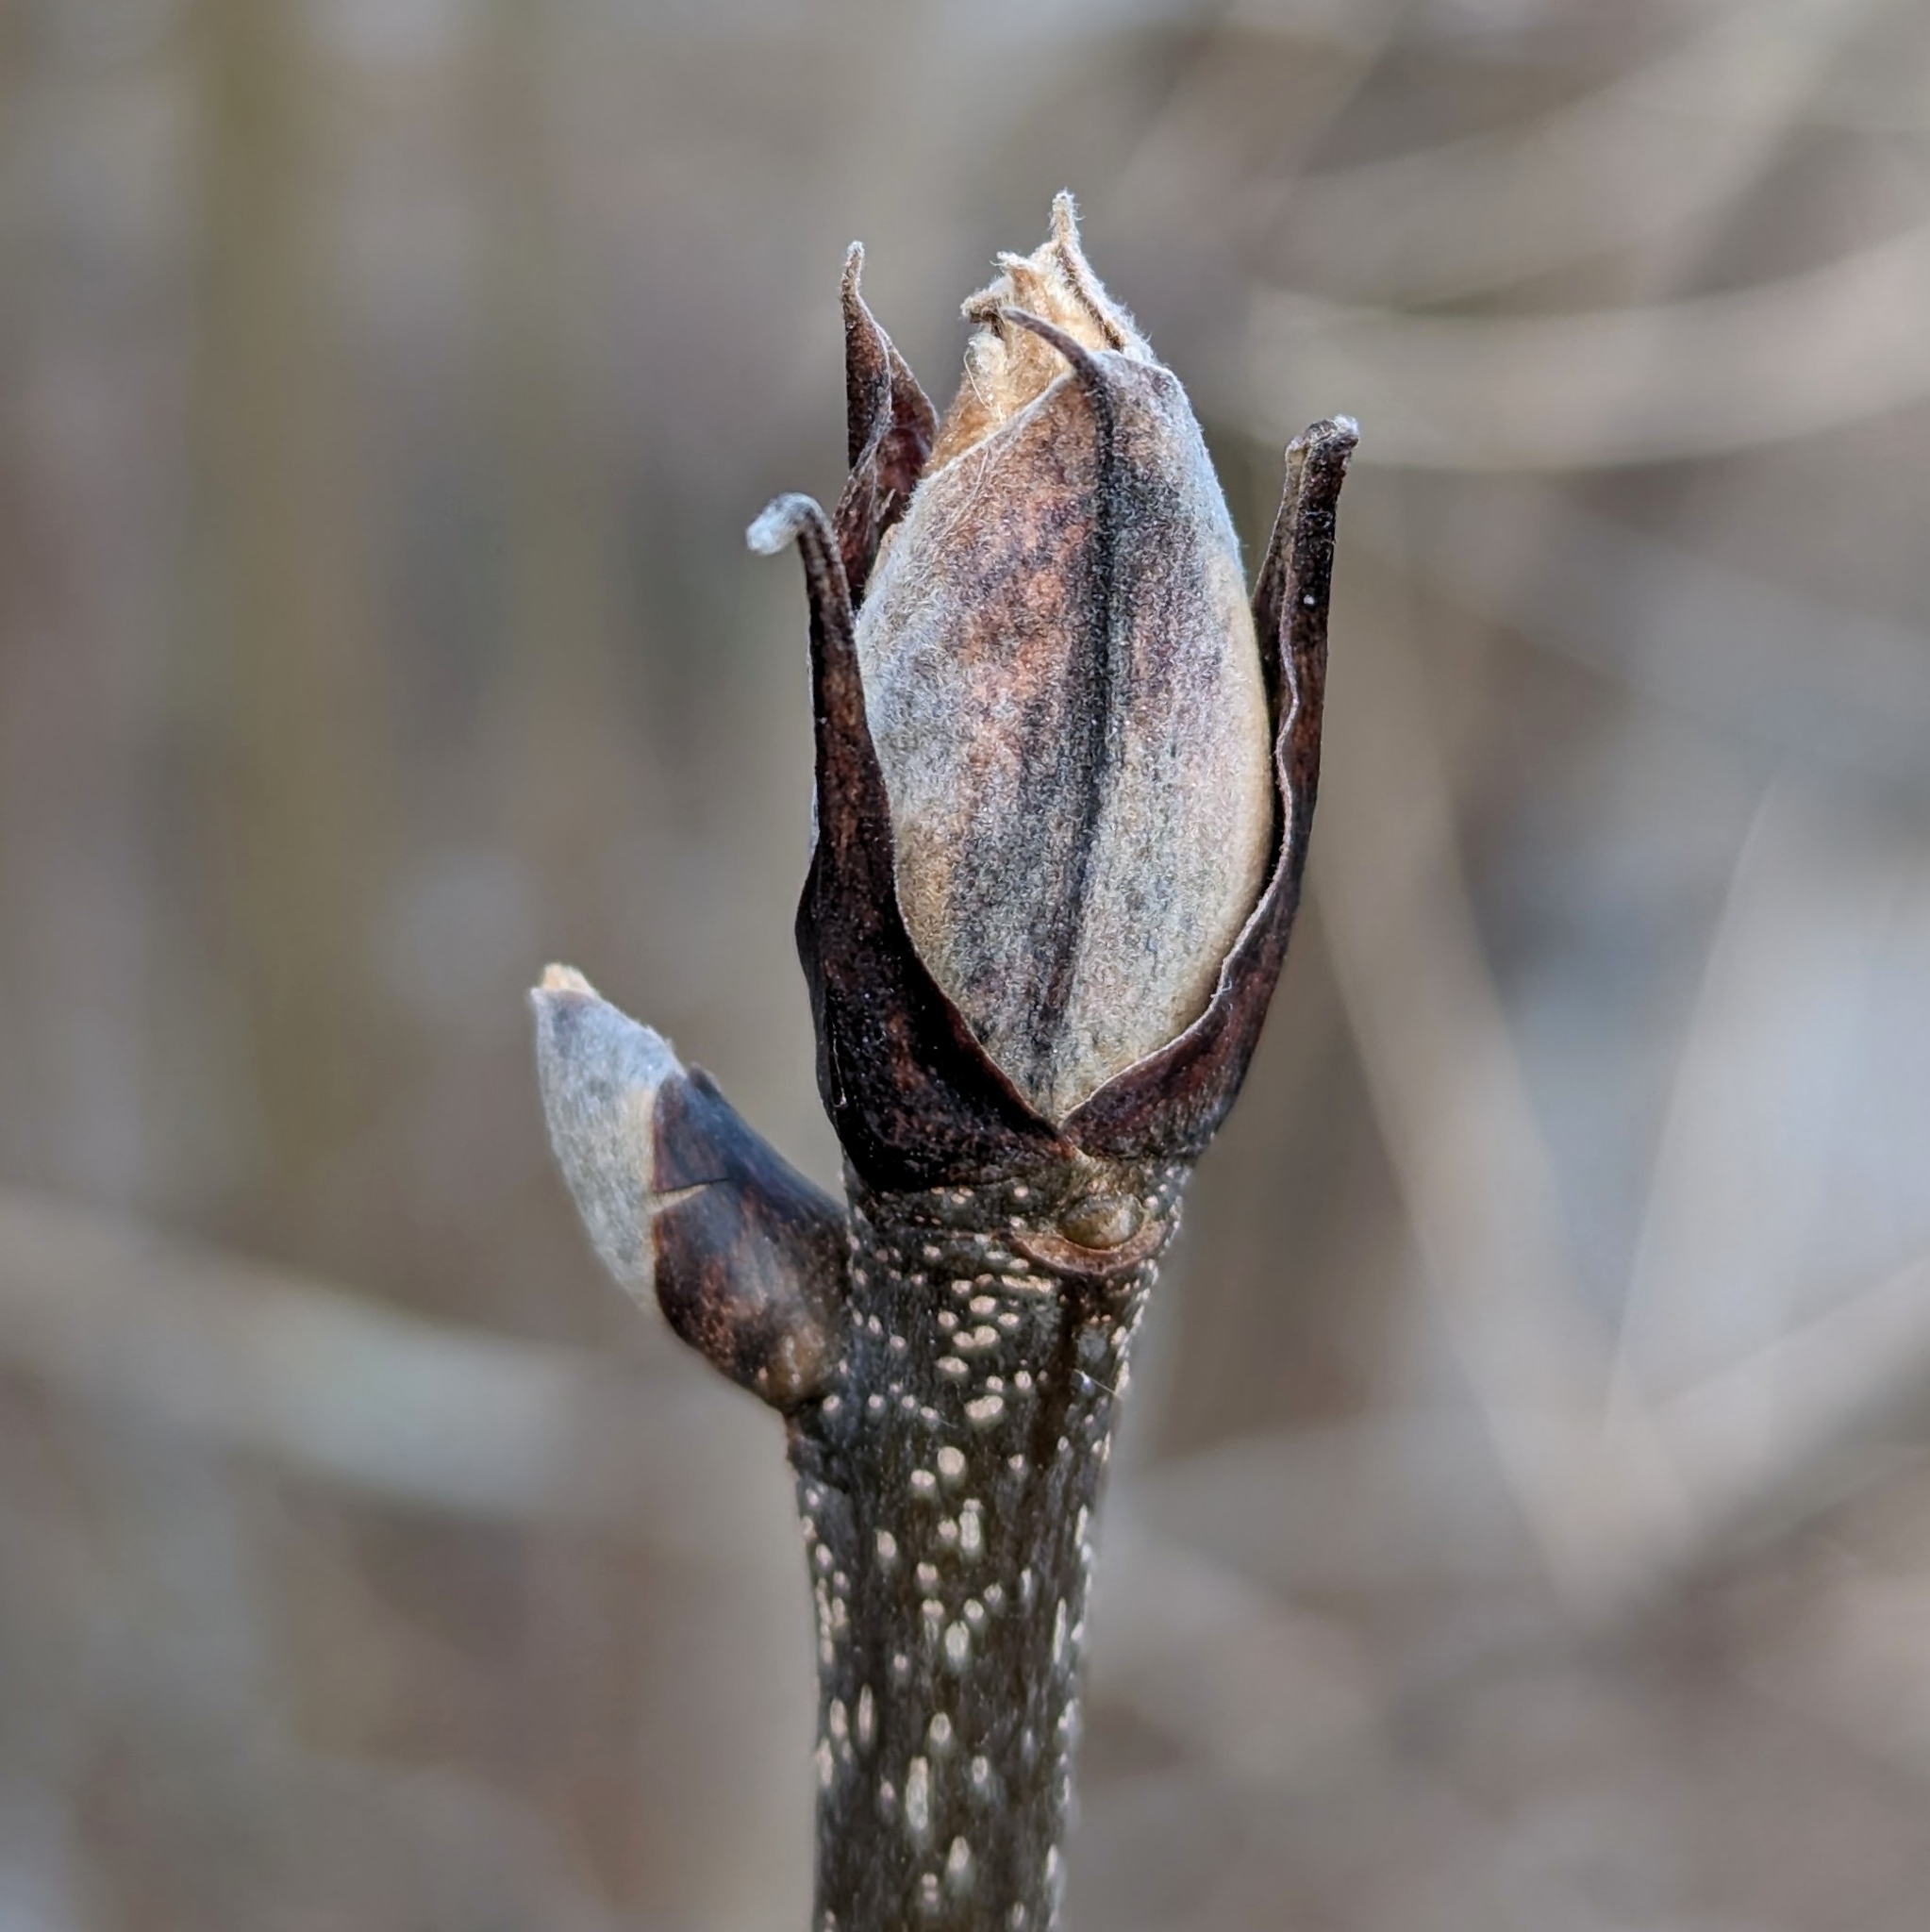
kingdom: Plantae
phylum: Tracheophyta
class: Magnoliopsida
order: Fagales
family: Juglandaceae
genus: Carya
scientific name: Carya ovata
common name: Shagbark hickory
